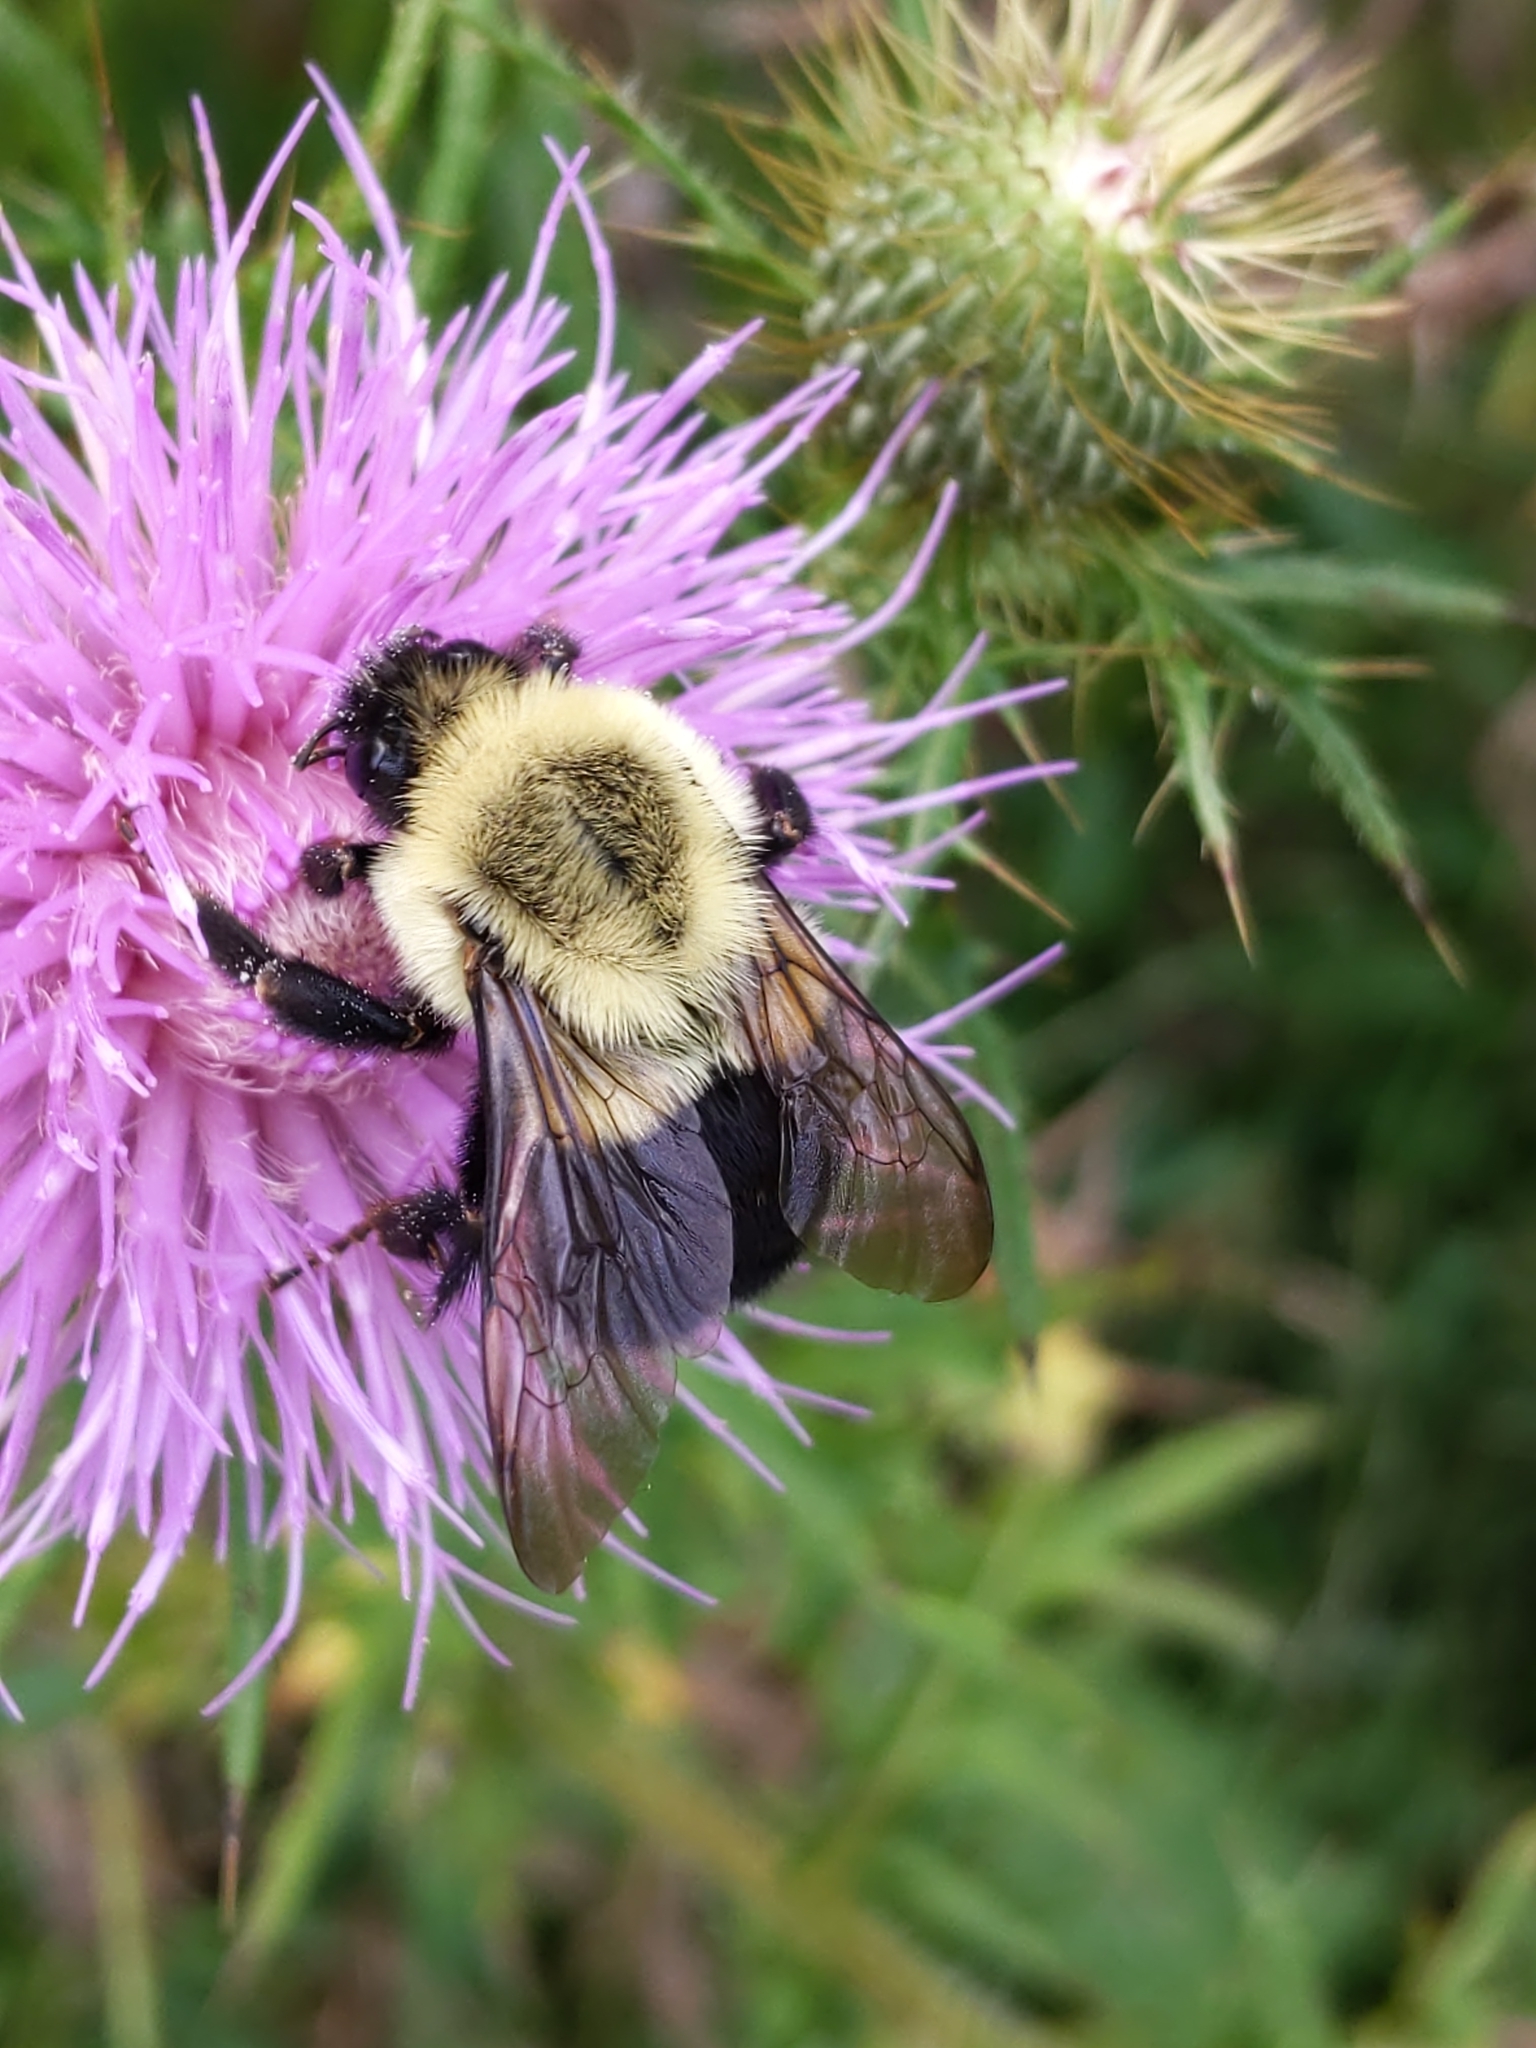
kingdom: Animalia
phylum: Arthropoda
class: Insecta
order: Hymenoptera
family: Apidae
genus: Bombus
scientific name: Bombus impatiens
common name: Common eastern bumble bee
